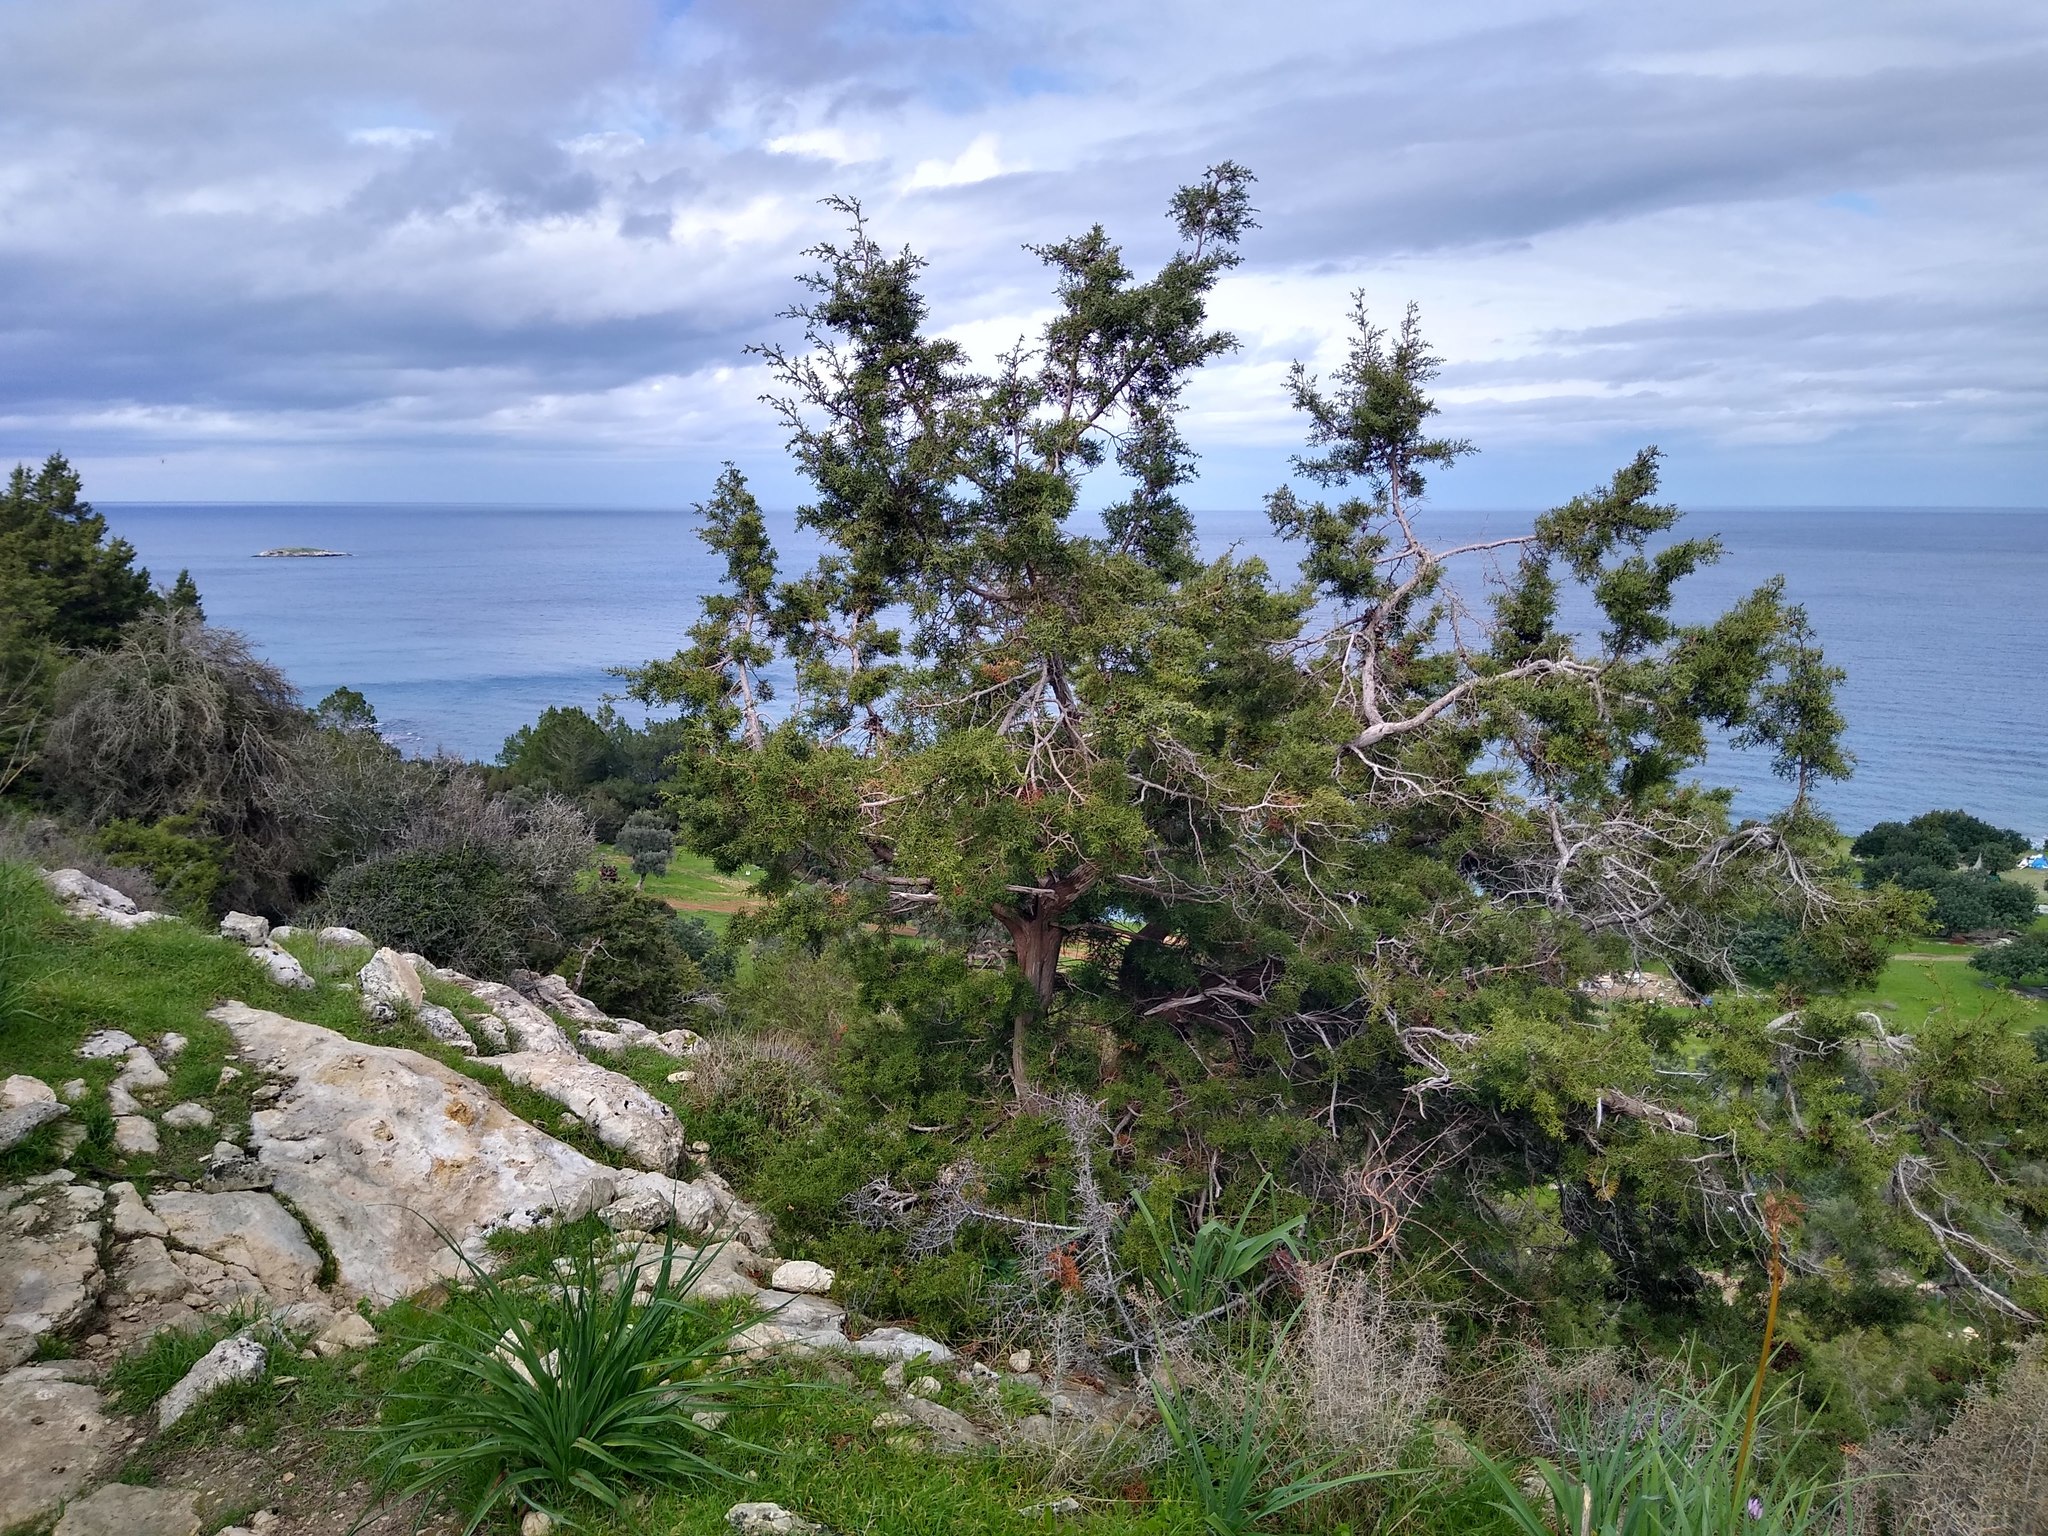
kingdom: Plantae
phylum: Tracheophyta
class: Pinopsida
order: Pinales
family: Cupressaceae
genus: Juniperus
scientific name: Juniperus phoenicea
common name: Phoenician juniper
